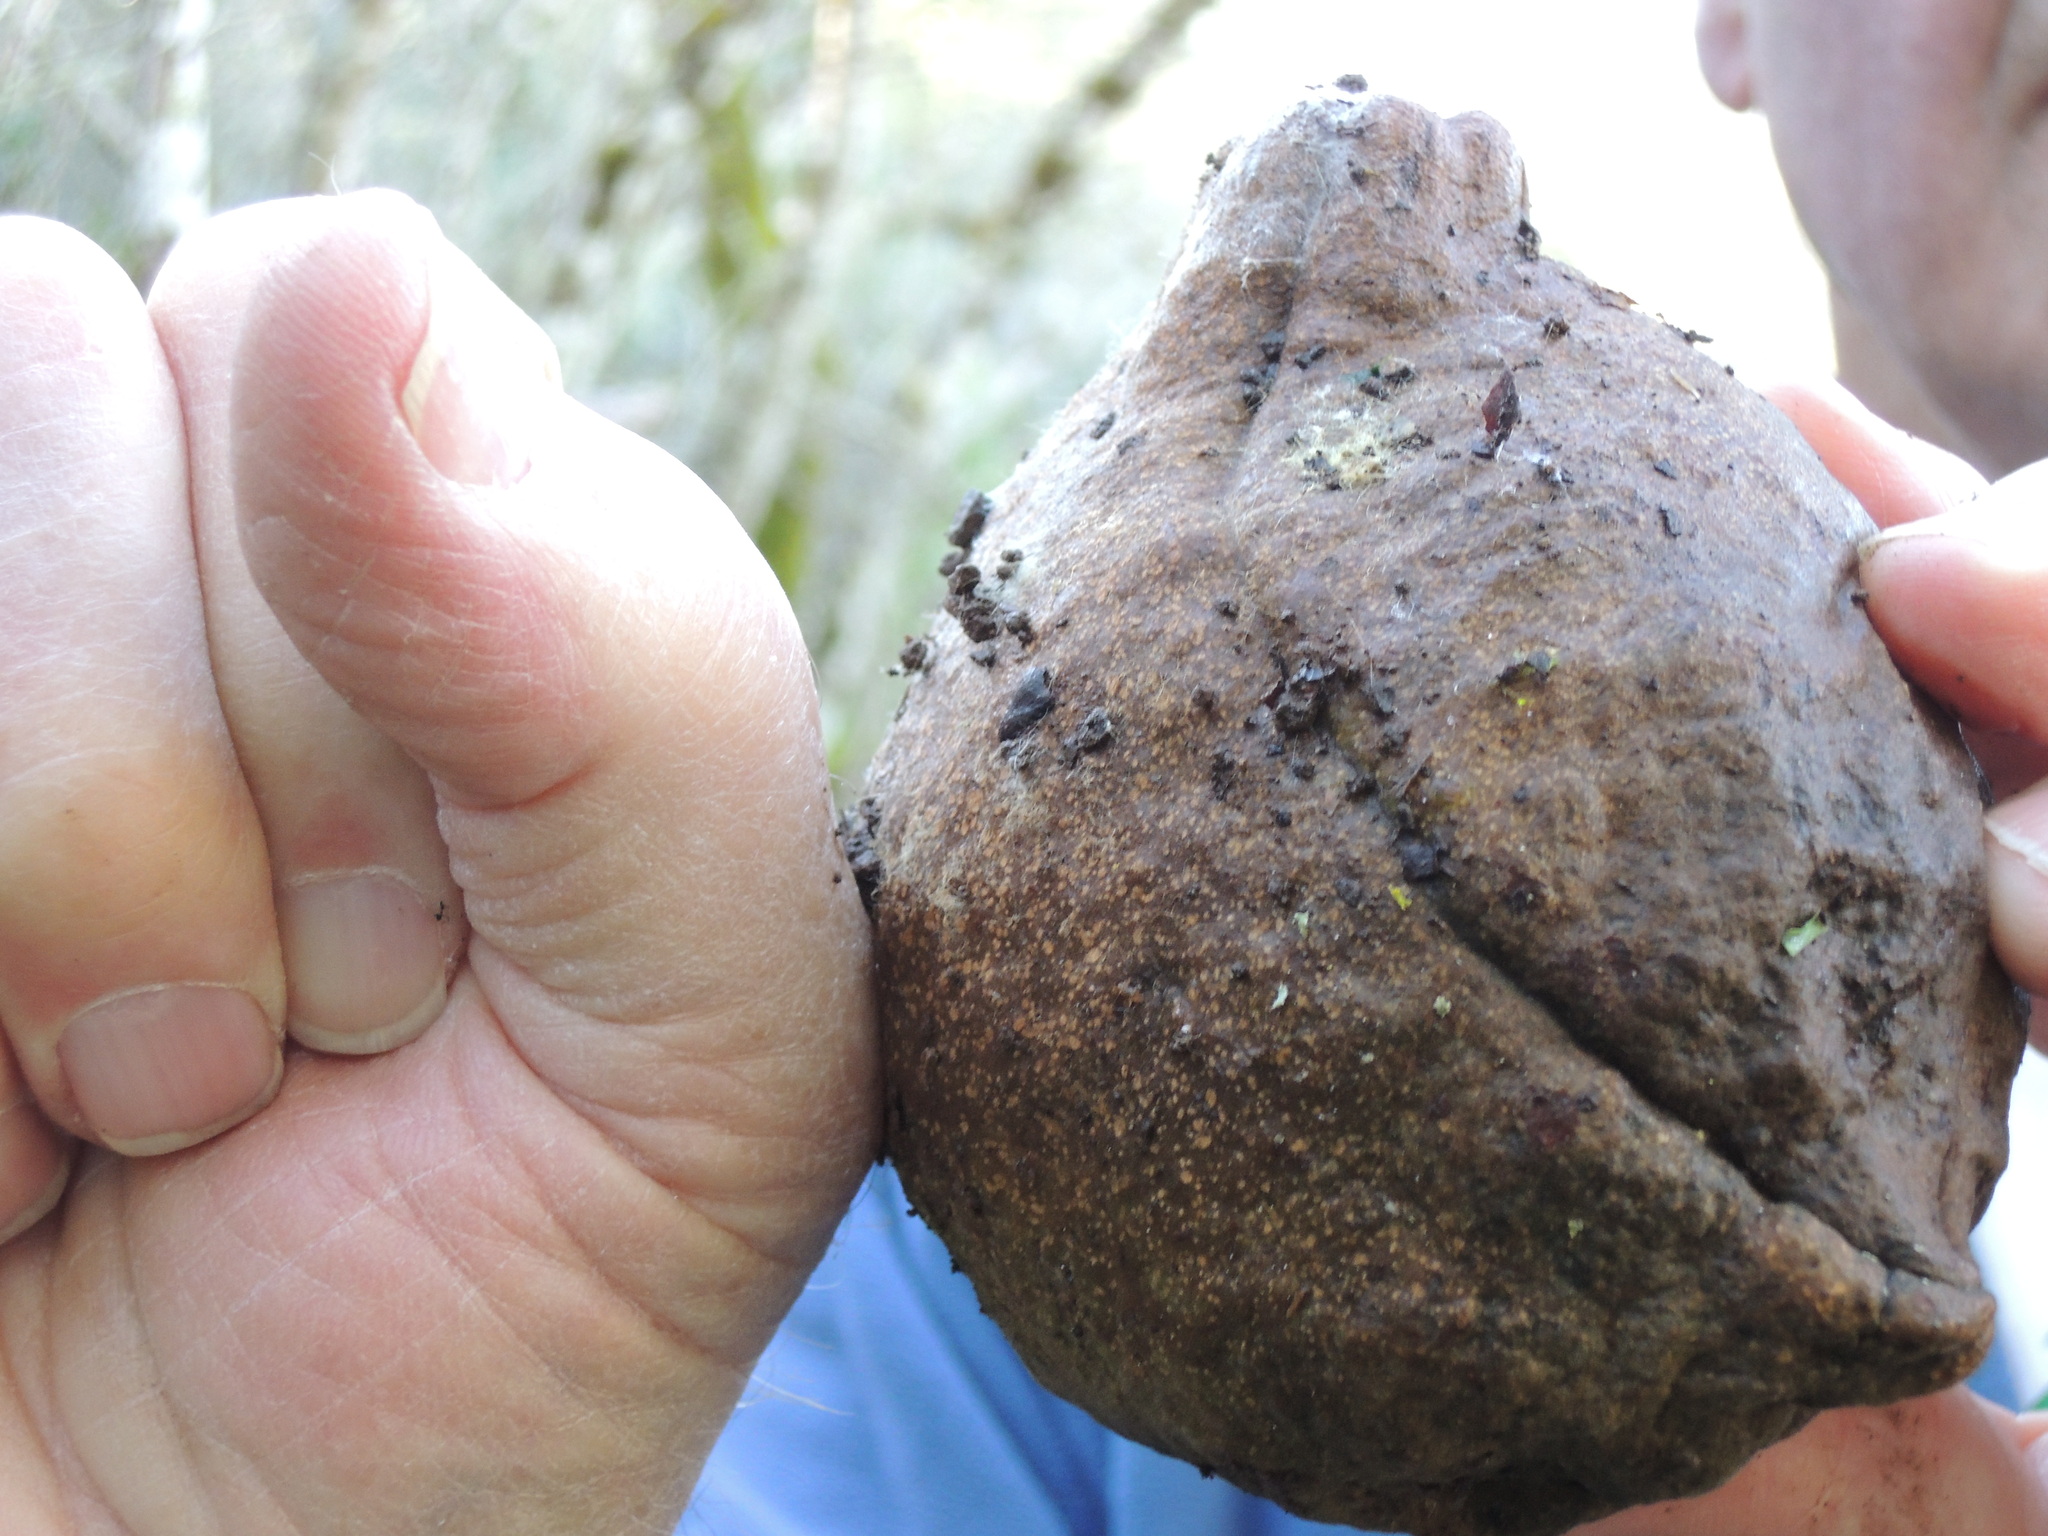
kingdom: Plantae
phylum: Tracheophyta
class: Magnoliopsida
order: Sapindales
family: Sapindaceae
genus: Aesculus
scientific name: Aesculus californica
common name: California buckeye
